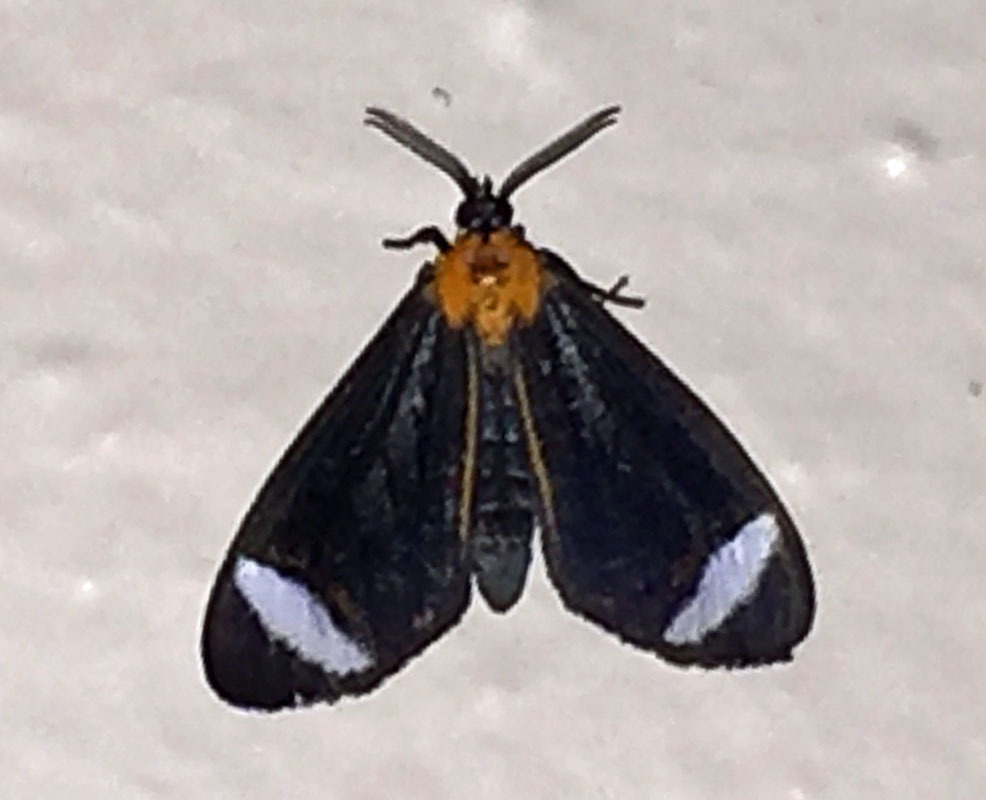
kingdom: Animalia
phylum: Arthropoda
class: Insecta
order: Lepidoptera
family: Erebidae
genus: Hyalurga
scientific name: Hyalurga vinosa
